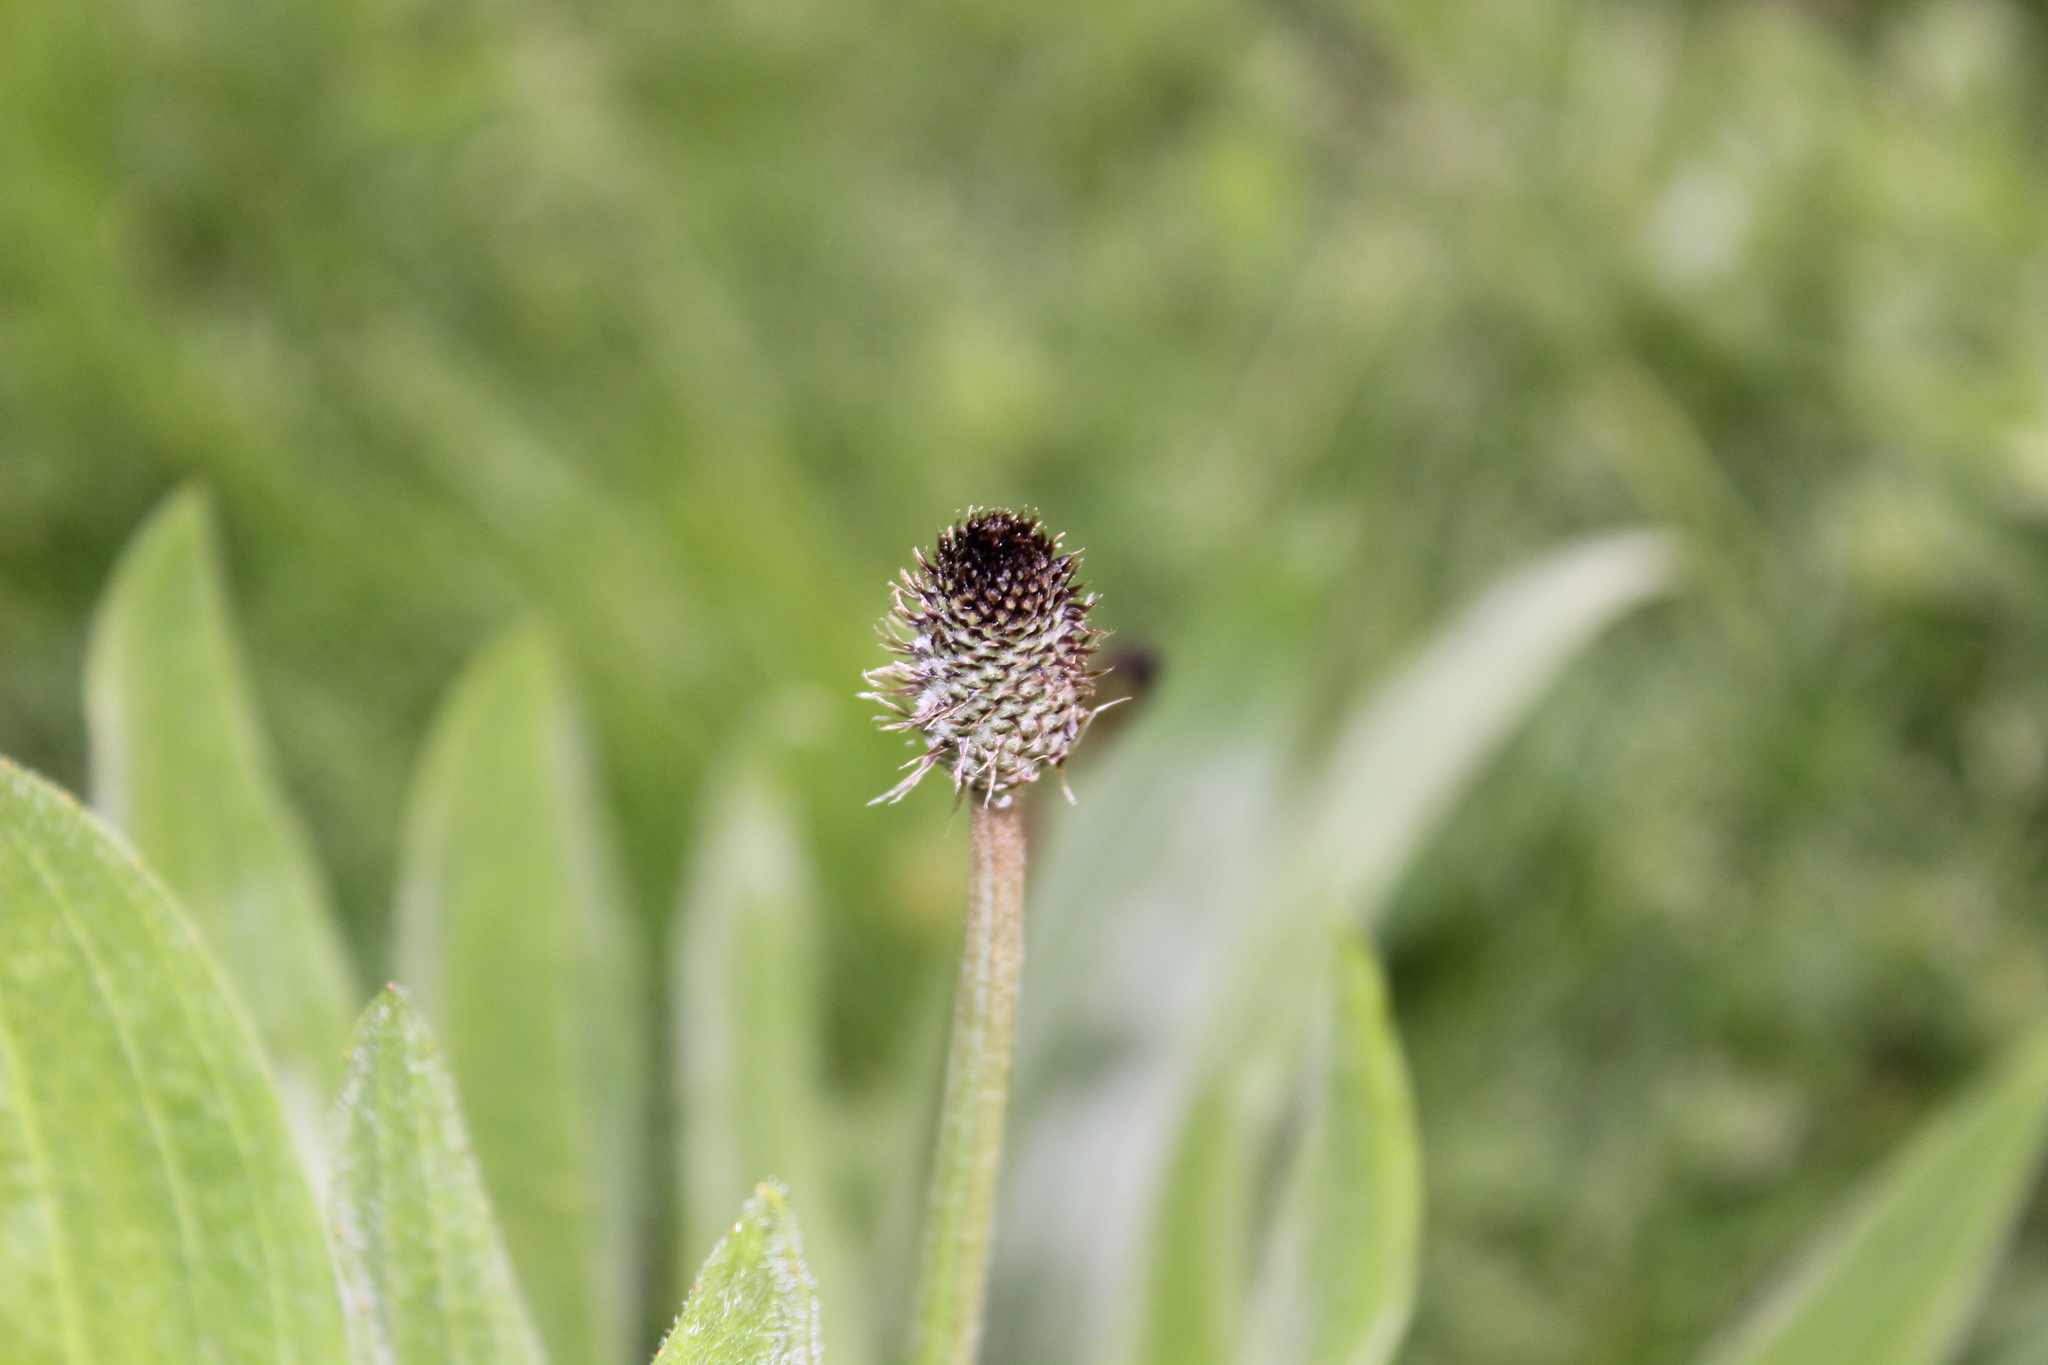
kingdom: Plantae
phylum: Tracheophyta
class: Magnoliopsida
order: Lamiales
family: Plantaginaceae
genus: Plantago
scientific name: Plantago lanceolata
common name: Ribwort plantain
